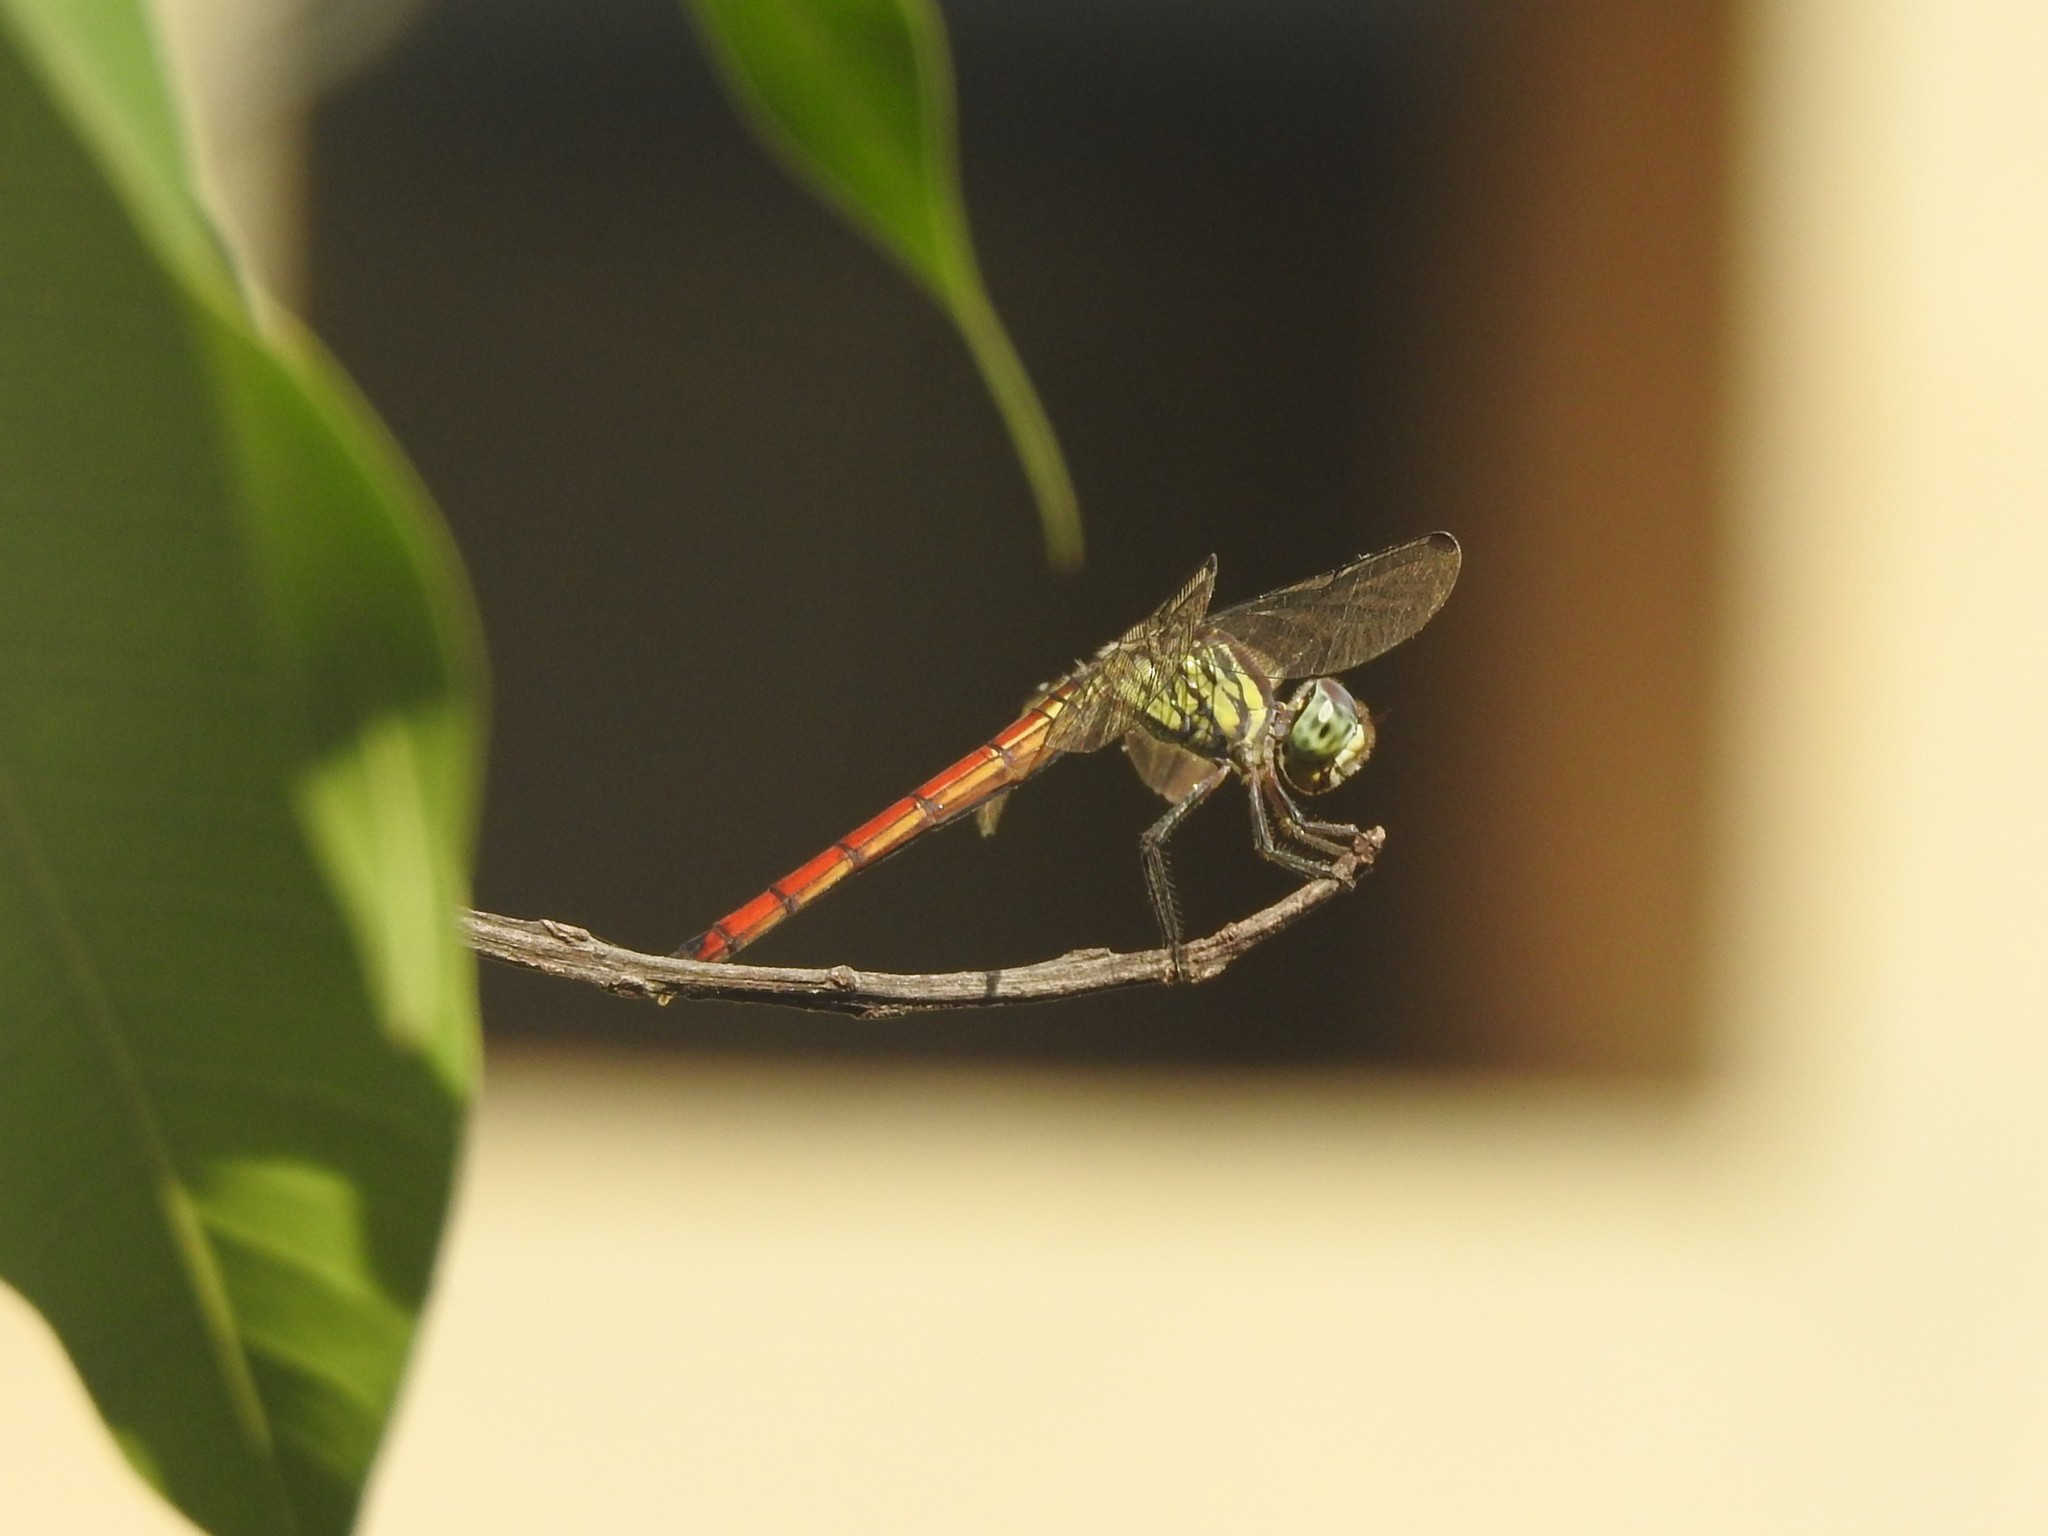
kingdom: Animalia
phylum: Arthropoda
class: Insecta
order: Odonata
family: Libellulidae
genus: Lathrecista
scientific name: Lathrecista asiatica
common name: Scarlet grenadier
